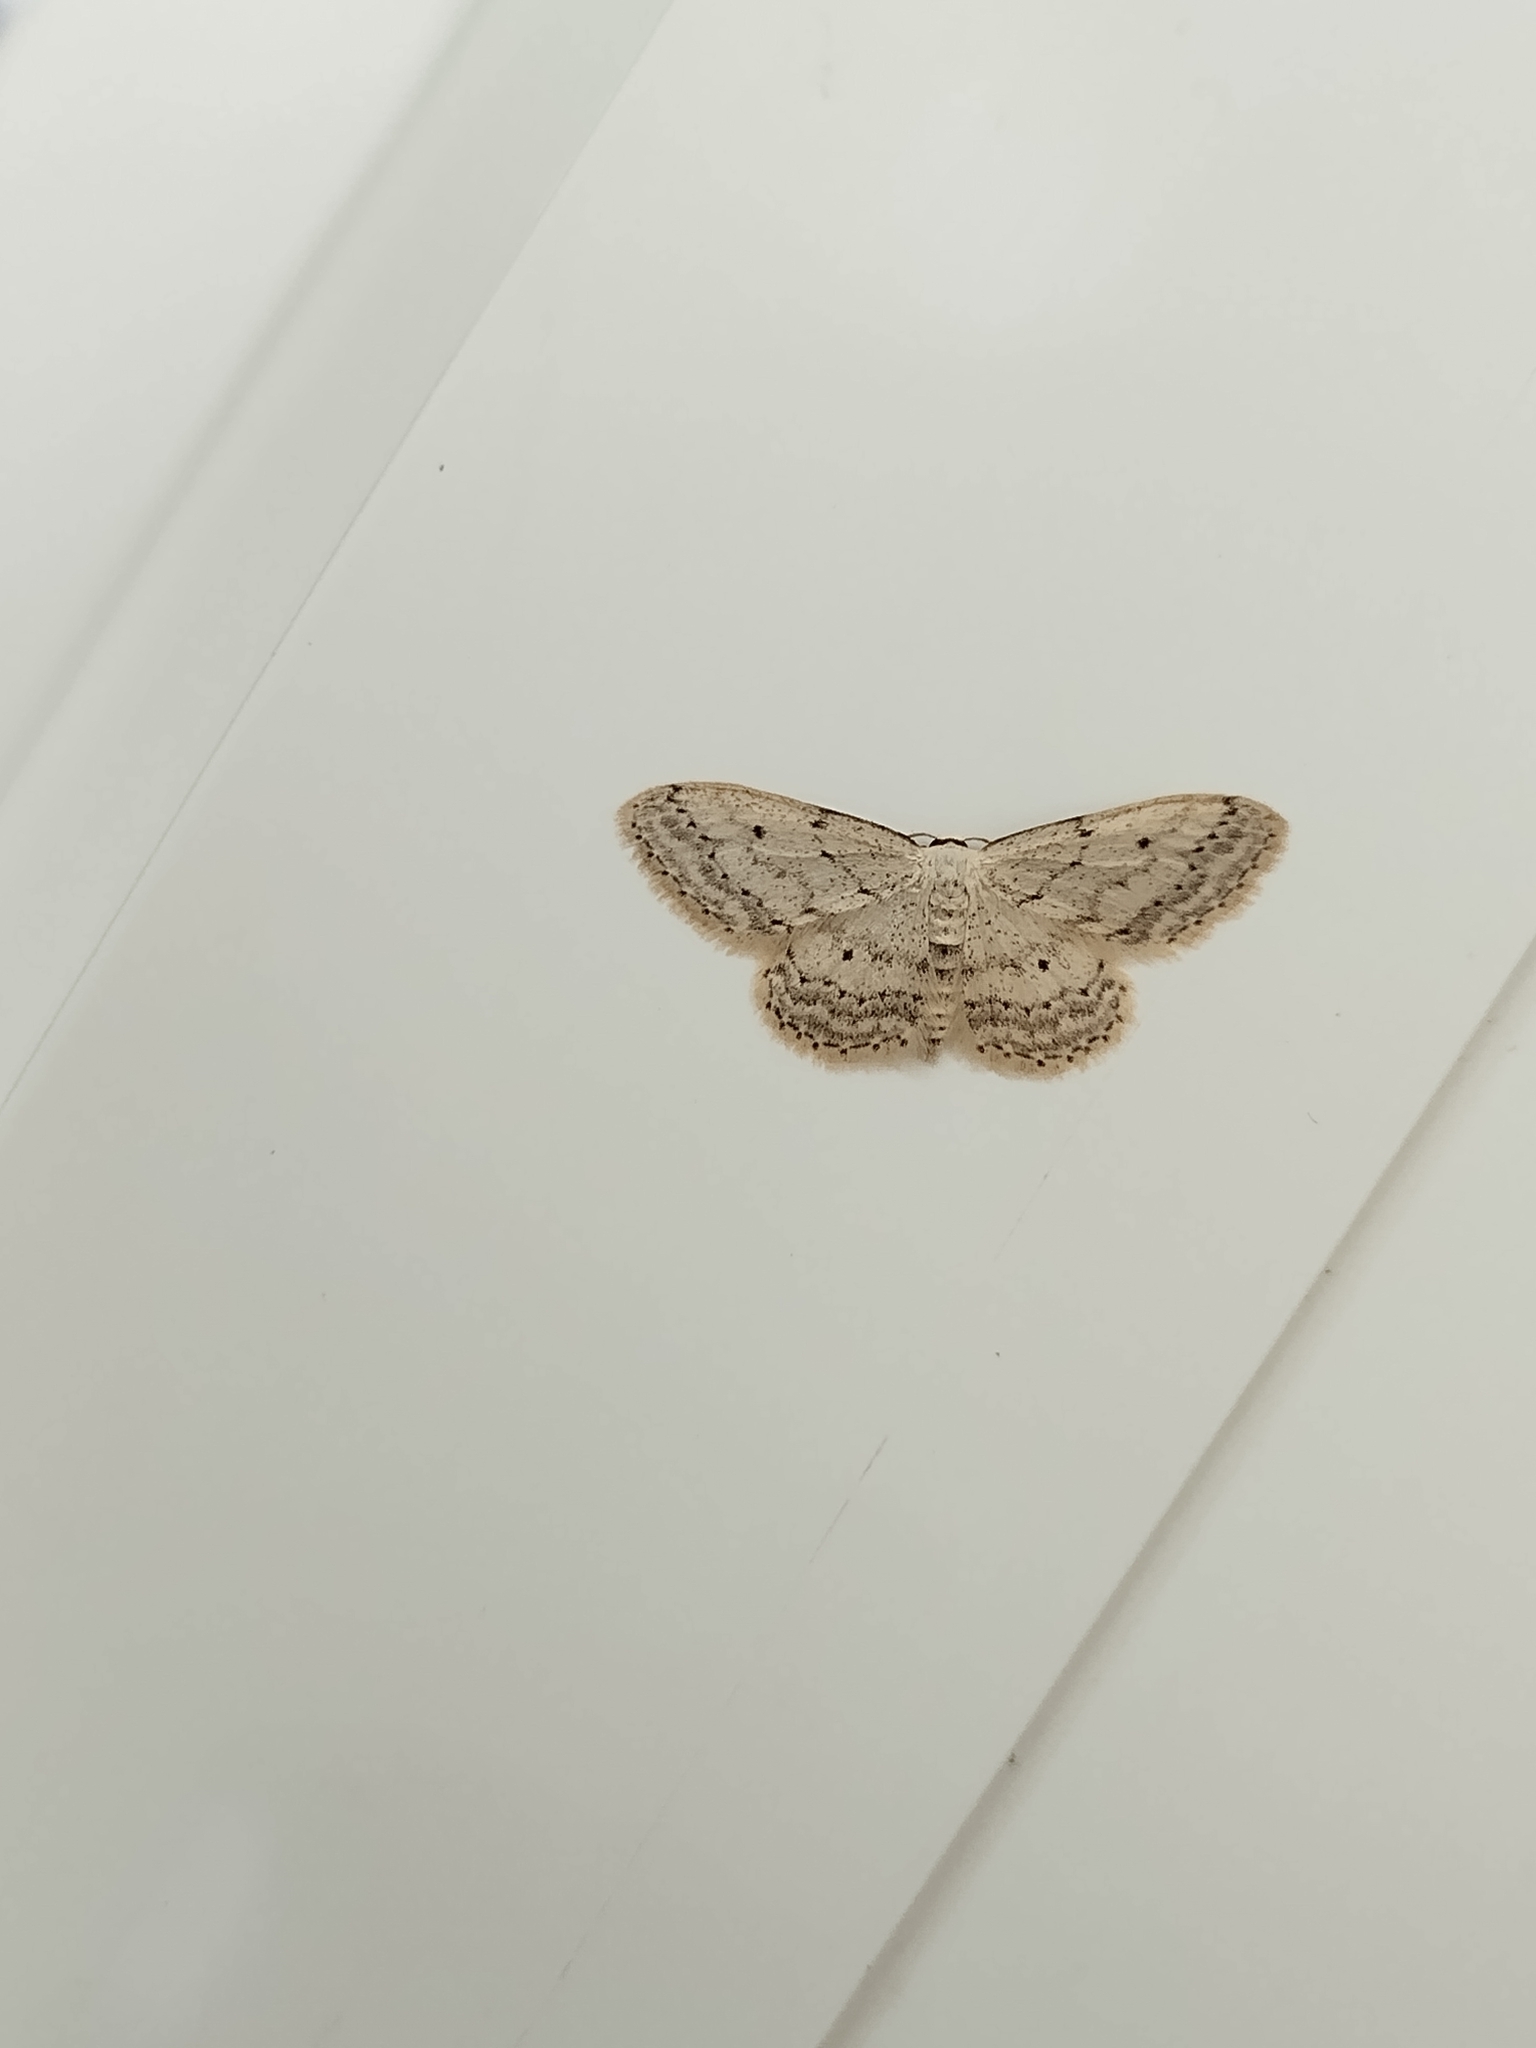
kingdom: Animalia
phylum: Arthropoda
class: Insecta
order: Lepidoptera
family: Geometridae
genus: Idaea
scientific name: Idaea seriata
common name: Small dusty wave
